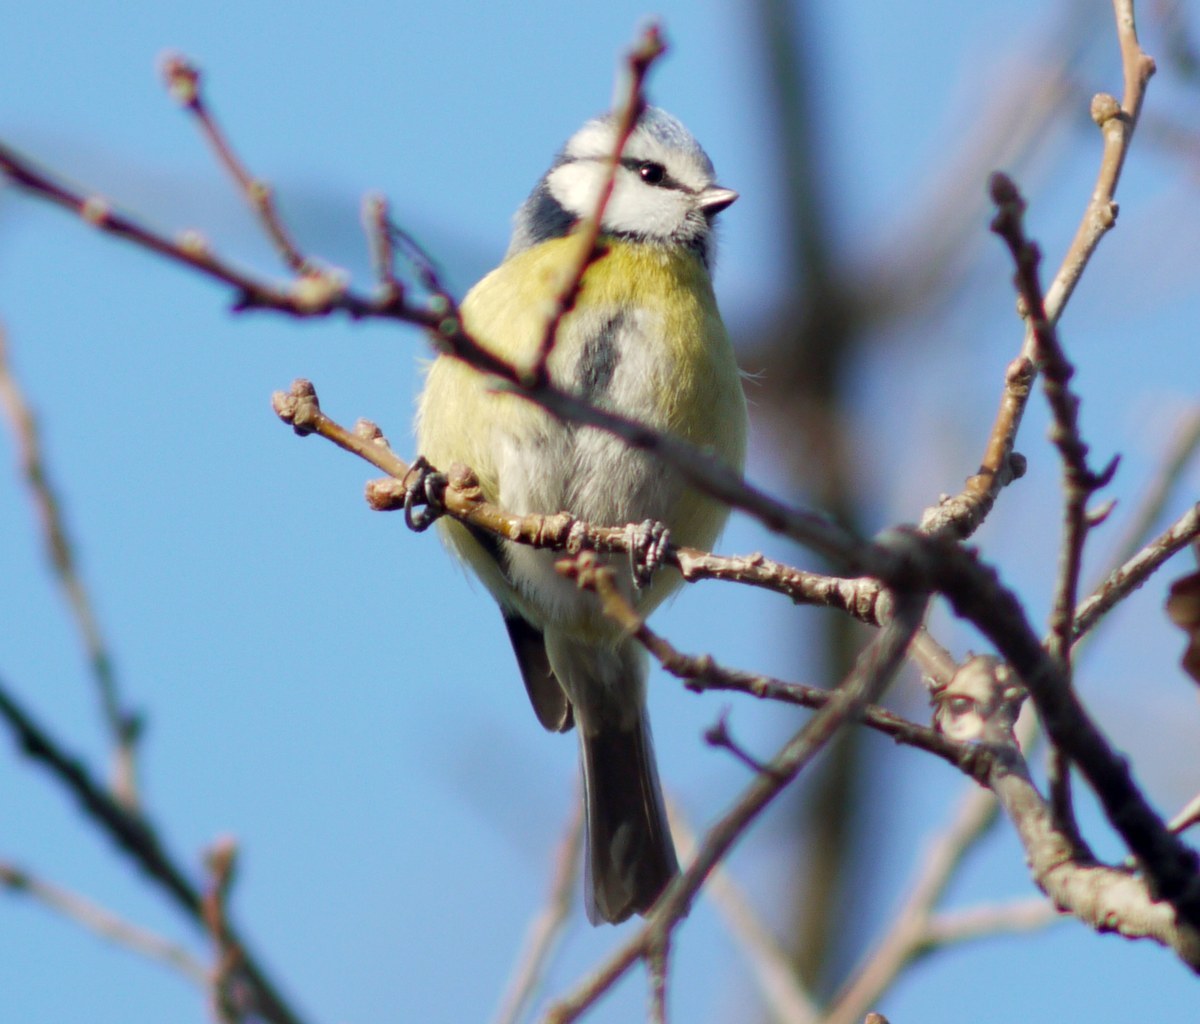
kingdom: Animalia
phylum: Chordata
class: Aves
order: Passeriformes
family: Paridae
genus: Cyanistes
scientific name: Cyanistes caeruleus
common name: Eurasian blue tit
